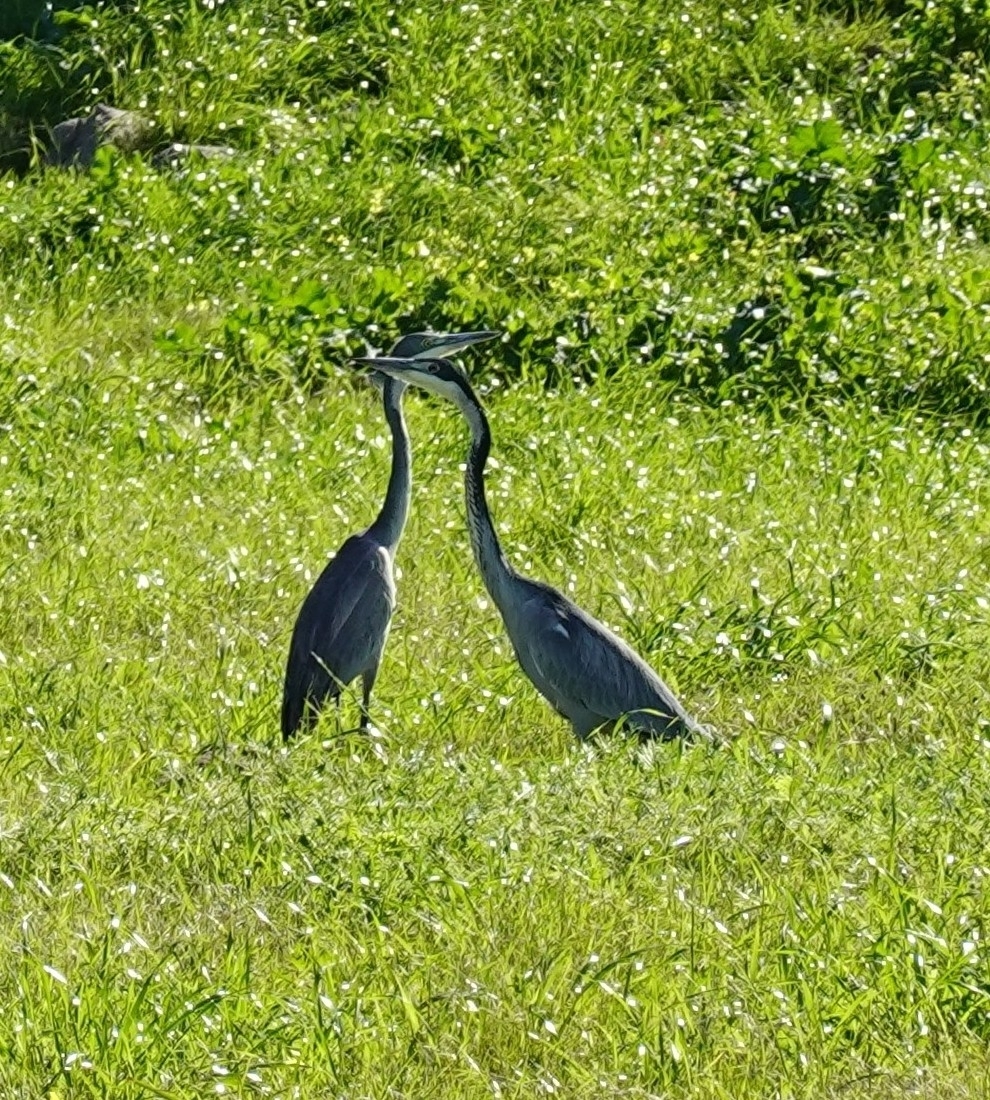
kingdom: Animalia
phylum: Chordata
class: Aves
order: Pelecaniformes
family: Ardeidae
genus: Ardea
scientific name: Ardea melanocephala
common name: Black-headed heron
